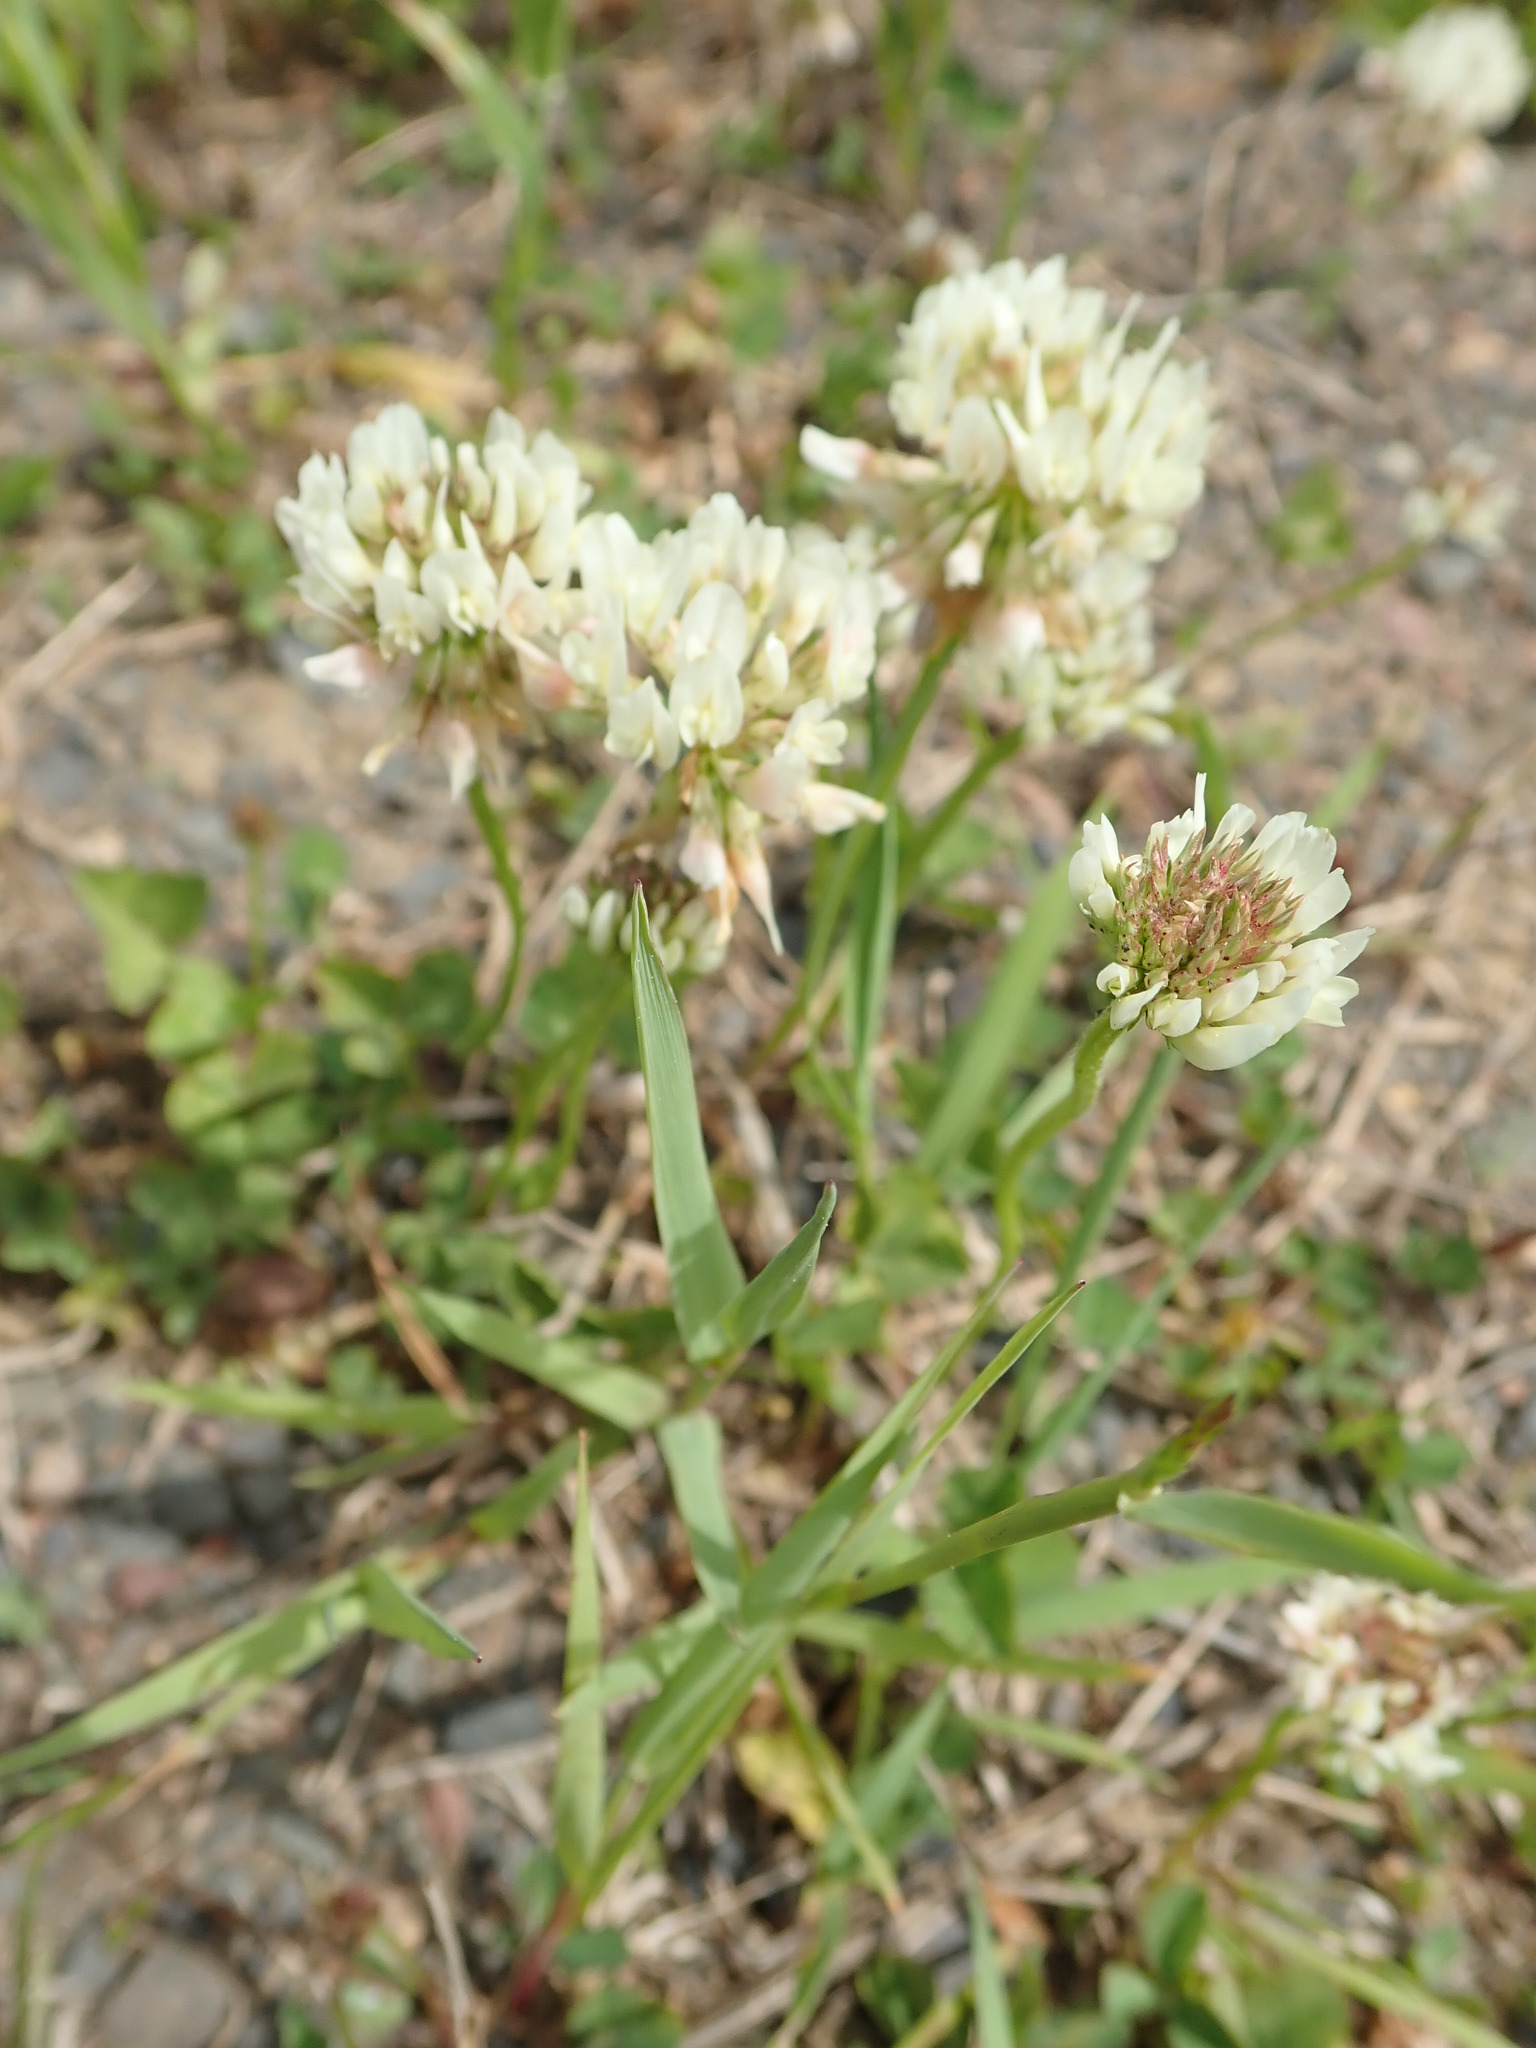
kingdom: Plantae
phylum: Tracheophyta
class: Magnoliopsida
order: Fabales
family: Fabaceae
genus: Trifolium
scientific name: Trifolium repens
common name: White clover
